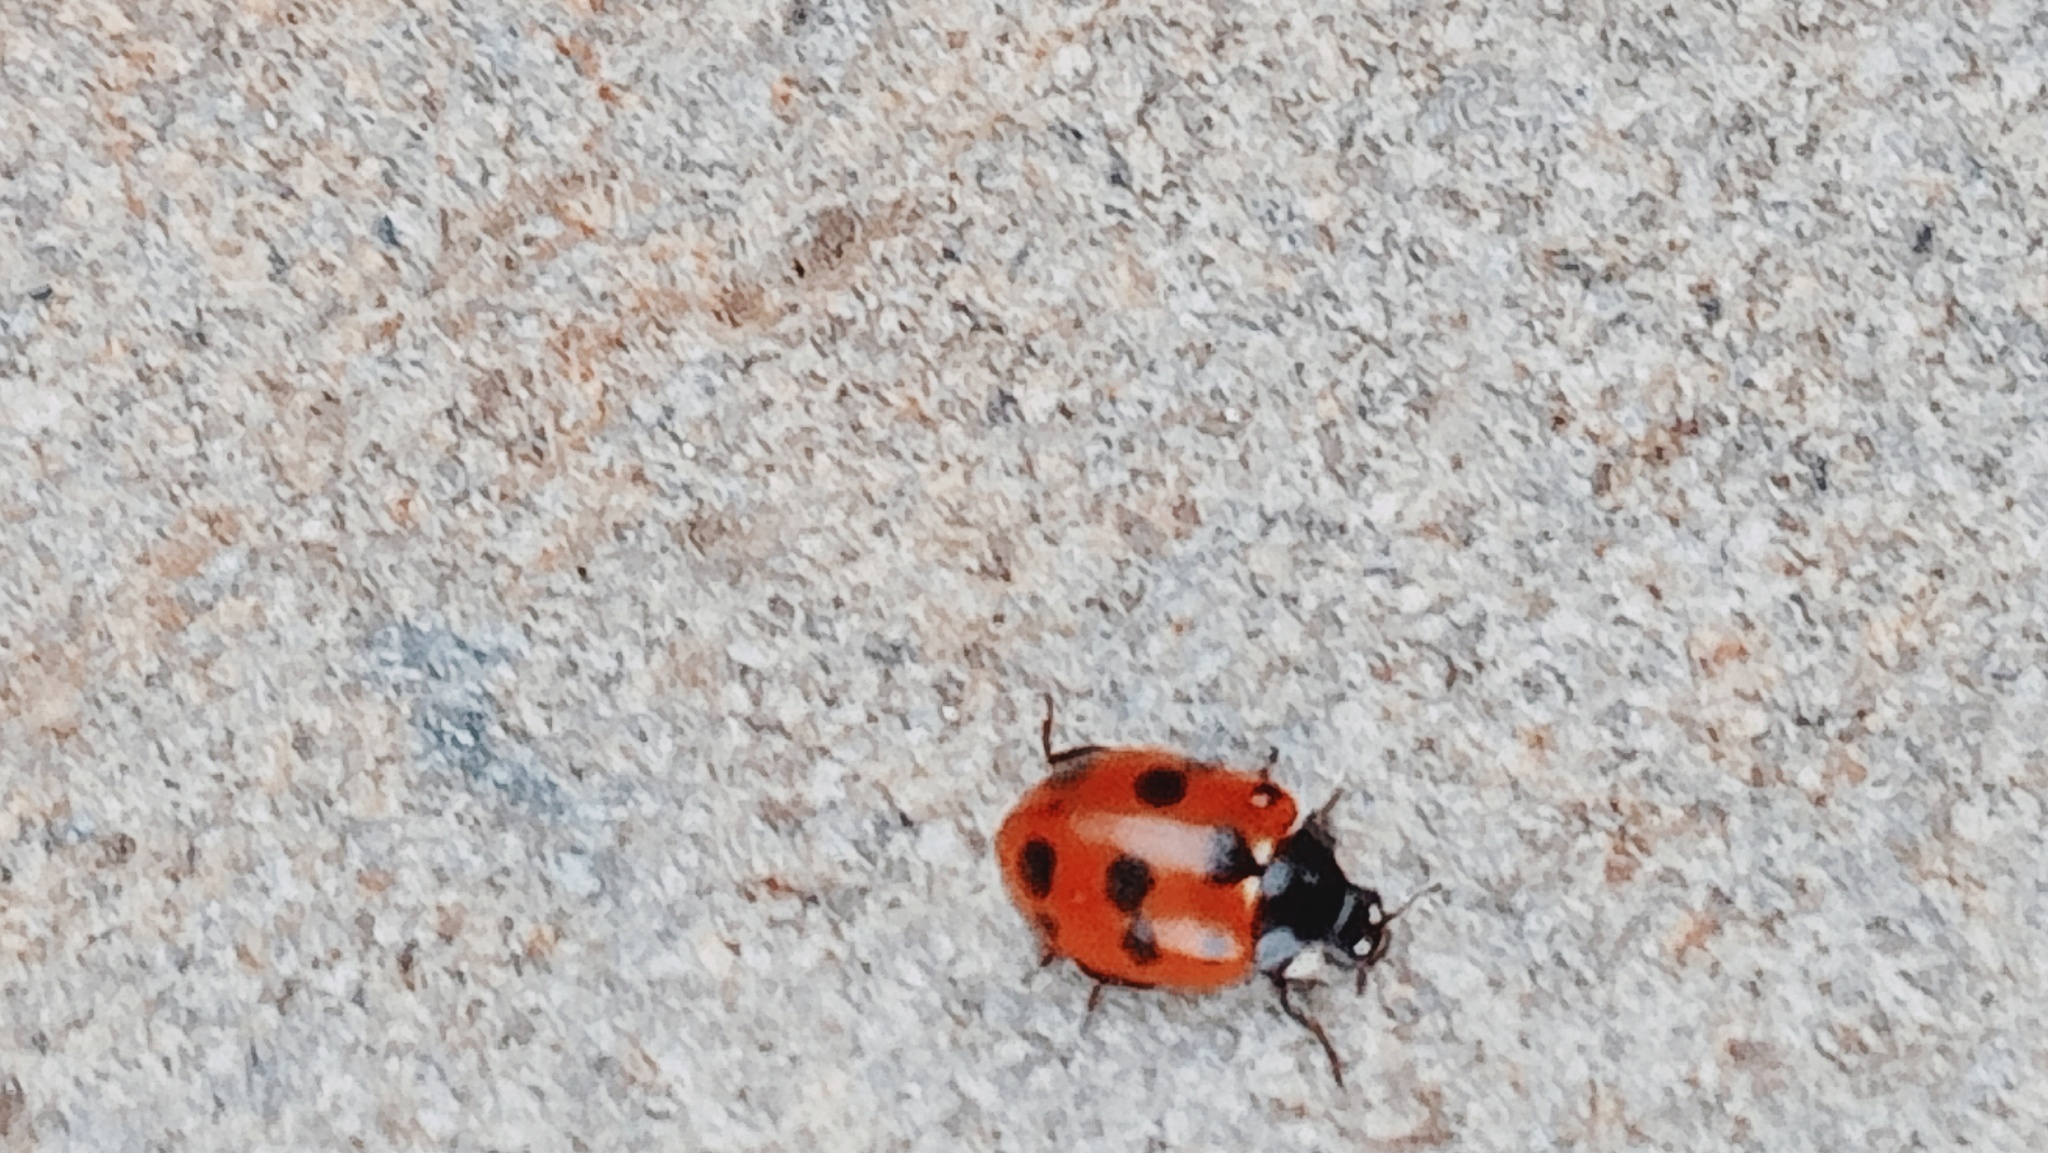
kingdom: Animalia
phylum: Arthropoda
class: Insecta
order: Coleoptera
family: Coccinellidae
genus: Coccinella
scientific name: Coccinella undecimpunctata
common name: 11-spot ladybird
